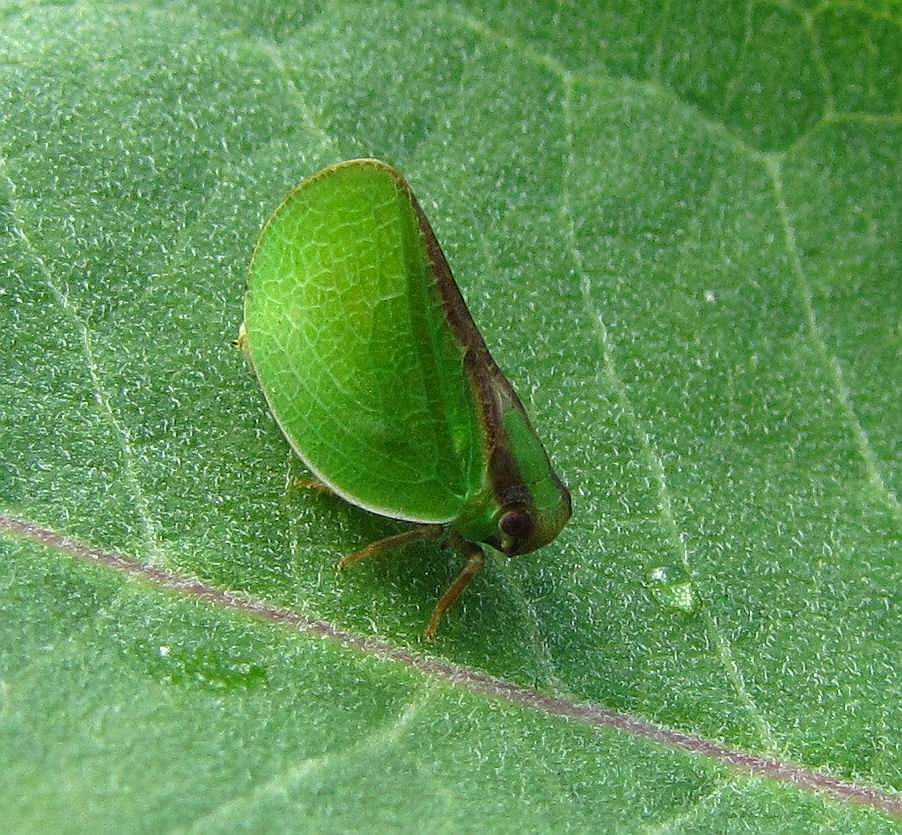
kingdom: Animalia
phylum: Arthropoda
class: Insecta
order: Hemiptera
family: Acanaloniidae
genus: Acanalonia
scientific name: Acanalonia bivittata
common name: Two-striped planthopper
